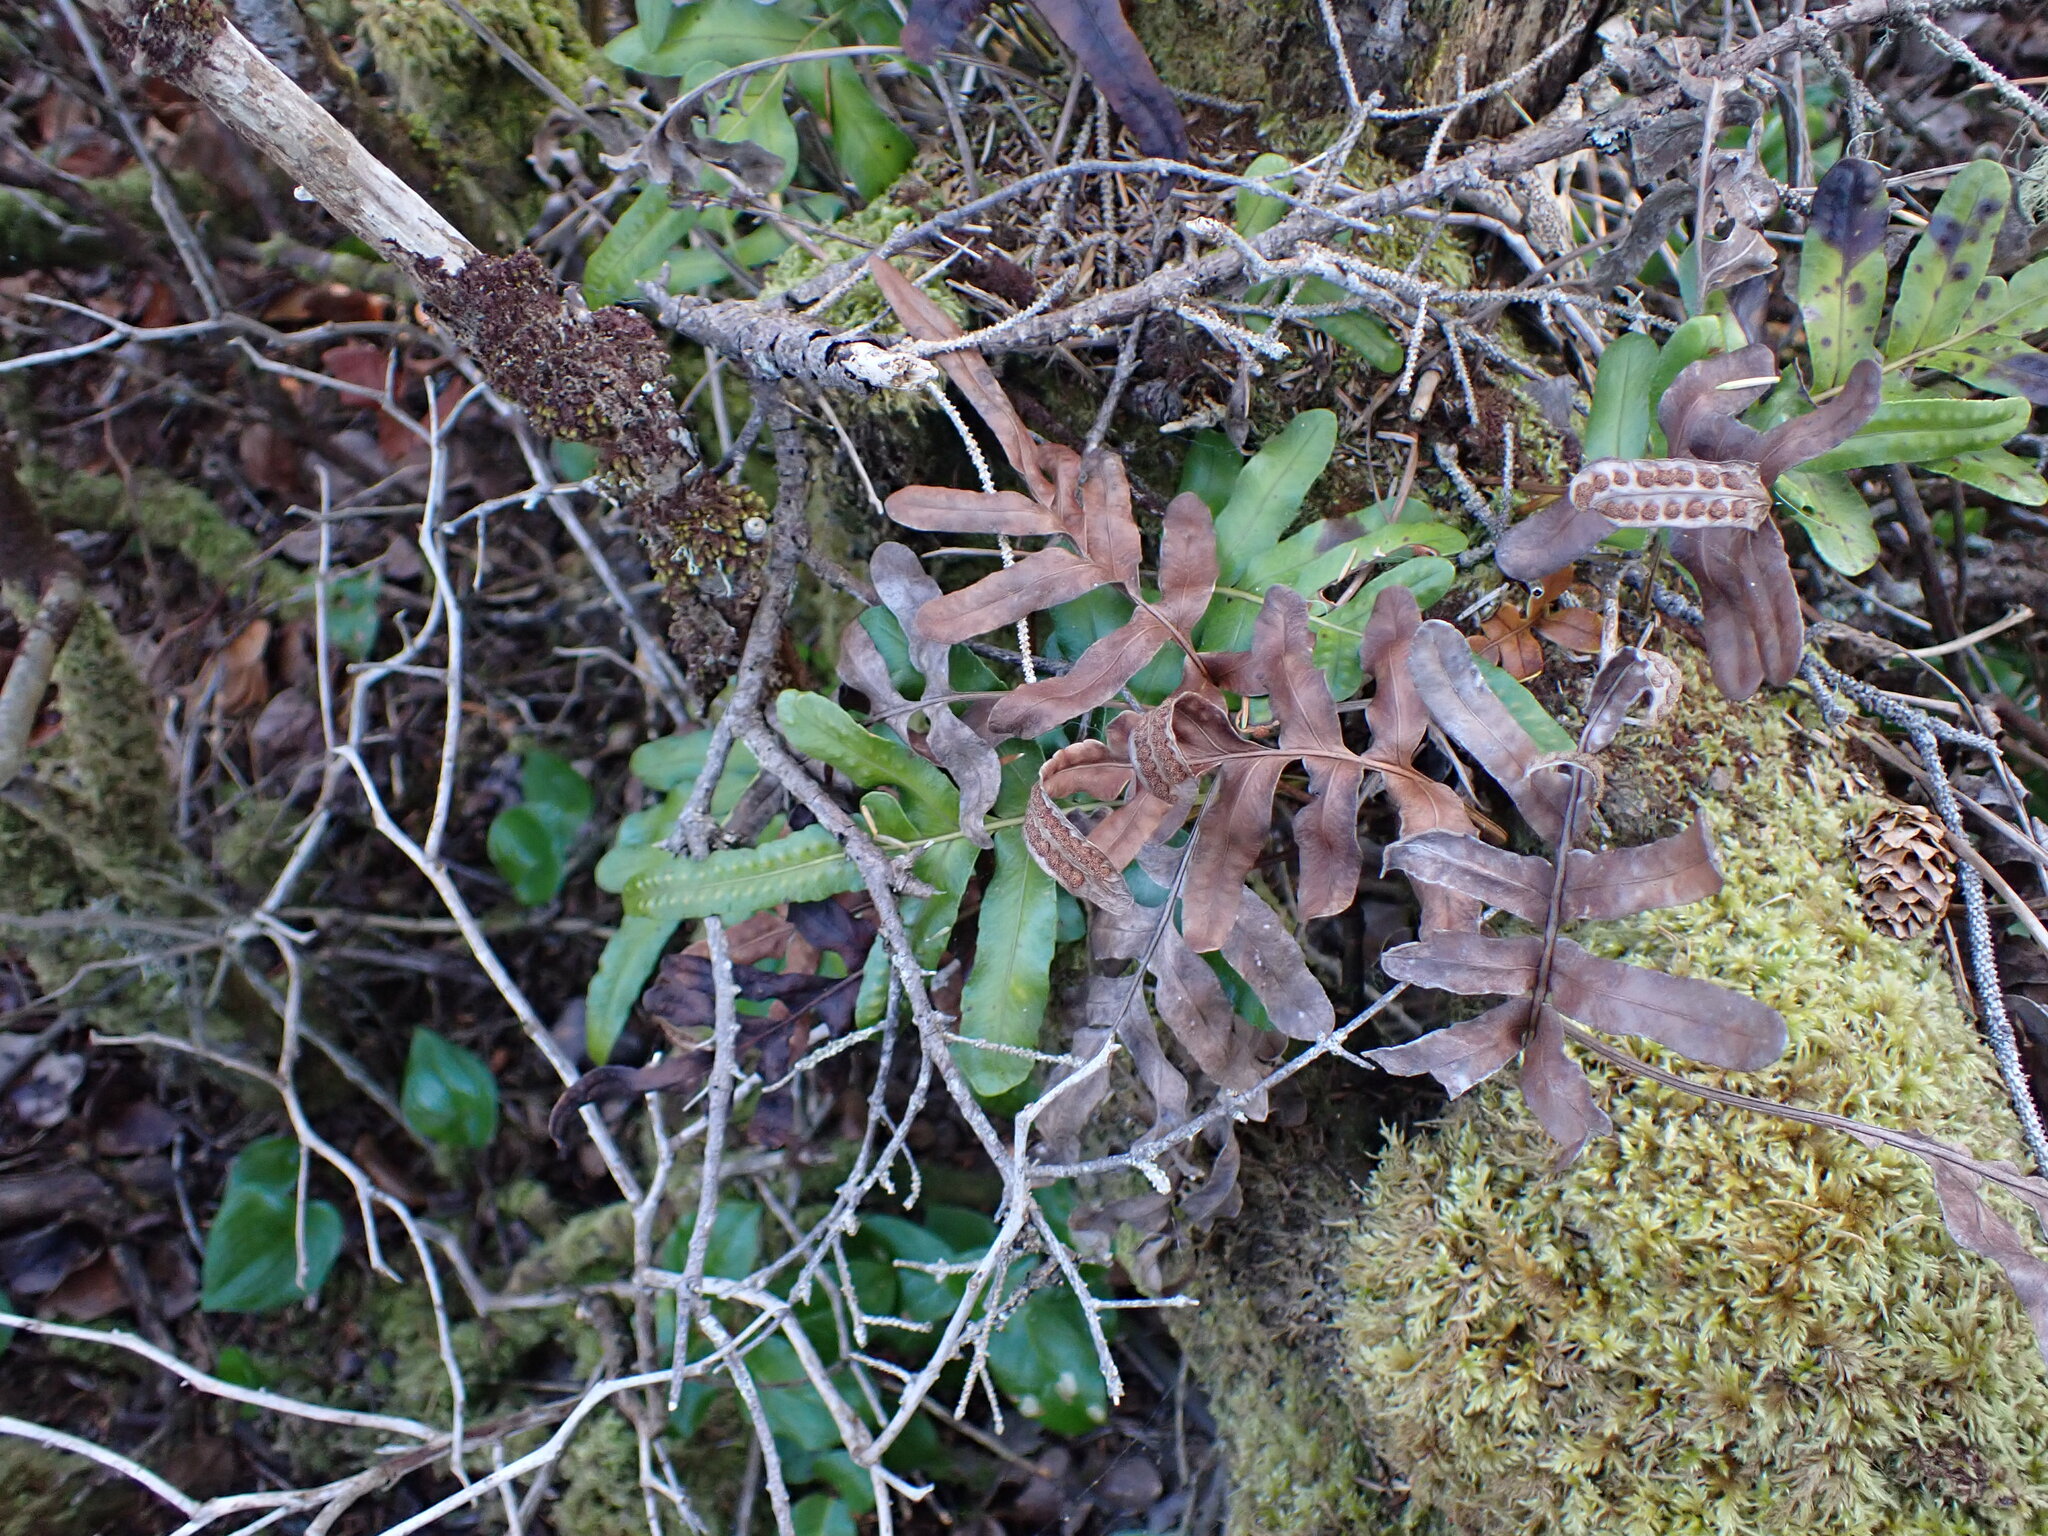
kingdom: Plantae
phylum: Tracheophyta
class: Polypodiopsida
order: Polypodiales
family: Polypodiaceae
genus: Polypodium
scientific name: Polypodium scouleri
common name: Scouler's polypody
